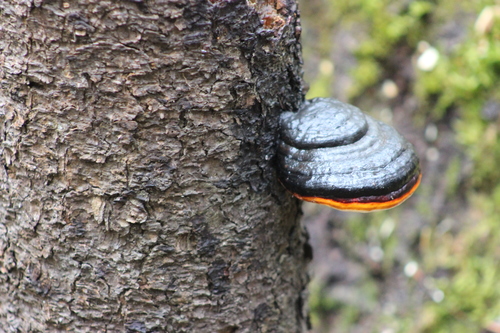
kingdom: Fungi
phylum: Basidiomycota
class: Agaricomycetes
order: Polyporales
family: Fomitopsidaceae
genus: Fomitopsis
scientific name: Fomitopsis pinicola
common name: Red-belted bracket
